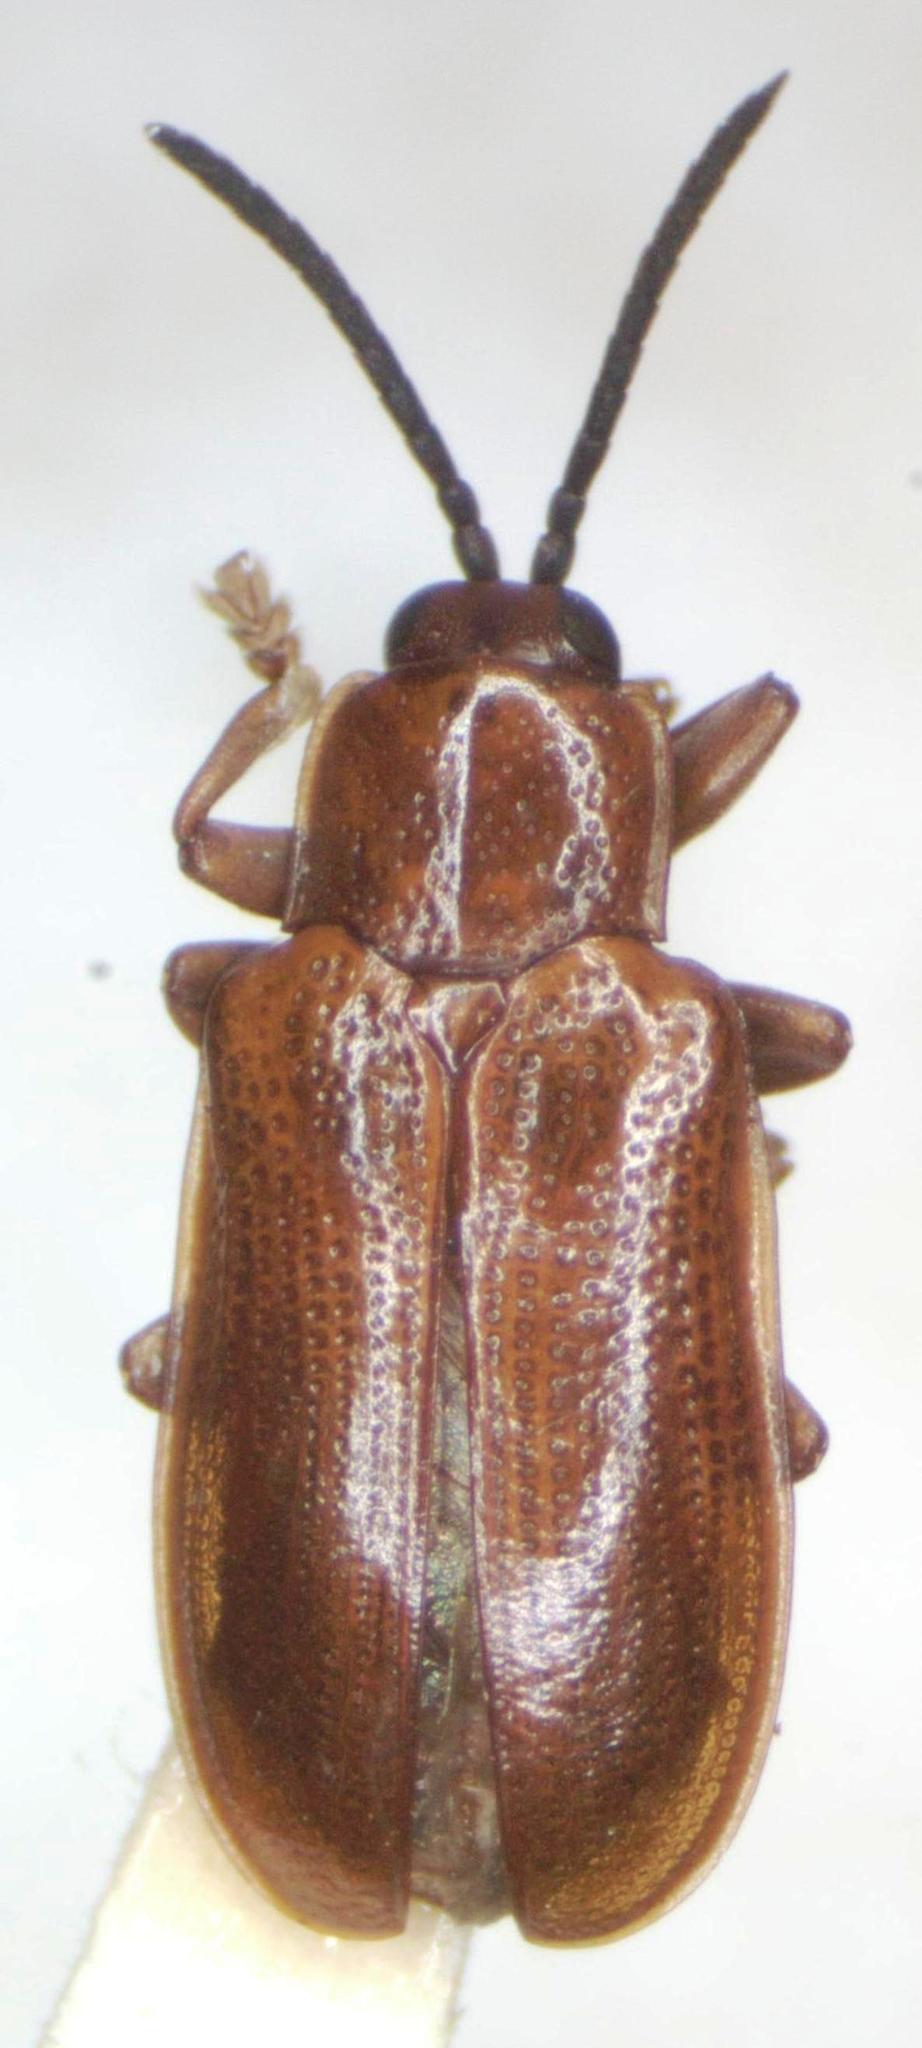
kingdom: Animalia
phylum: Arthropoda
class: Insecta
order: Coleoptera
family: Chrysomelidae
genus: Cephaloleia
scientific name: Cephaloleia puncticollis
